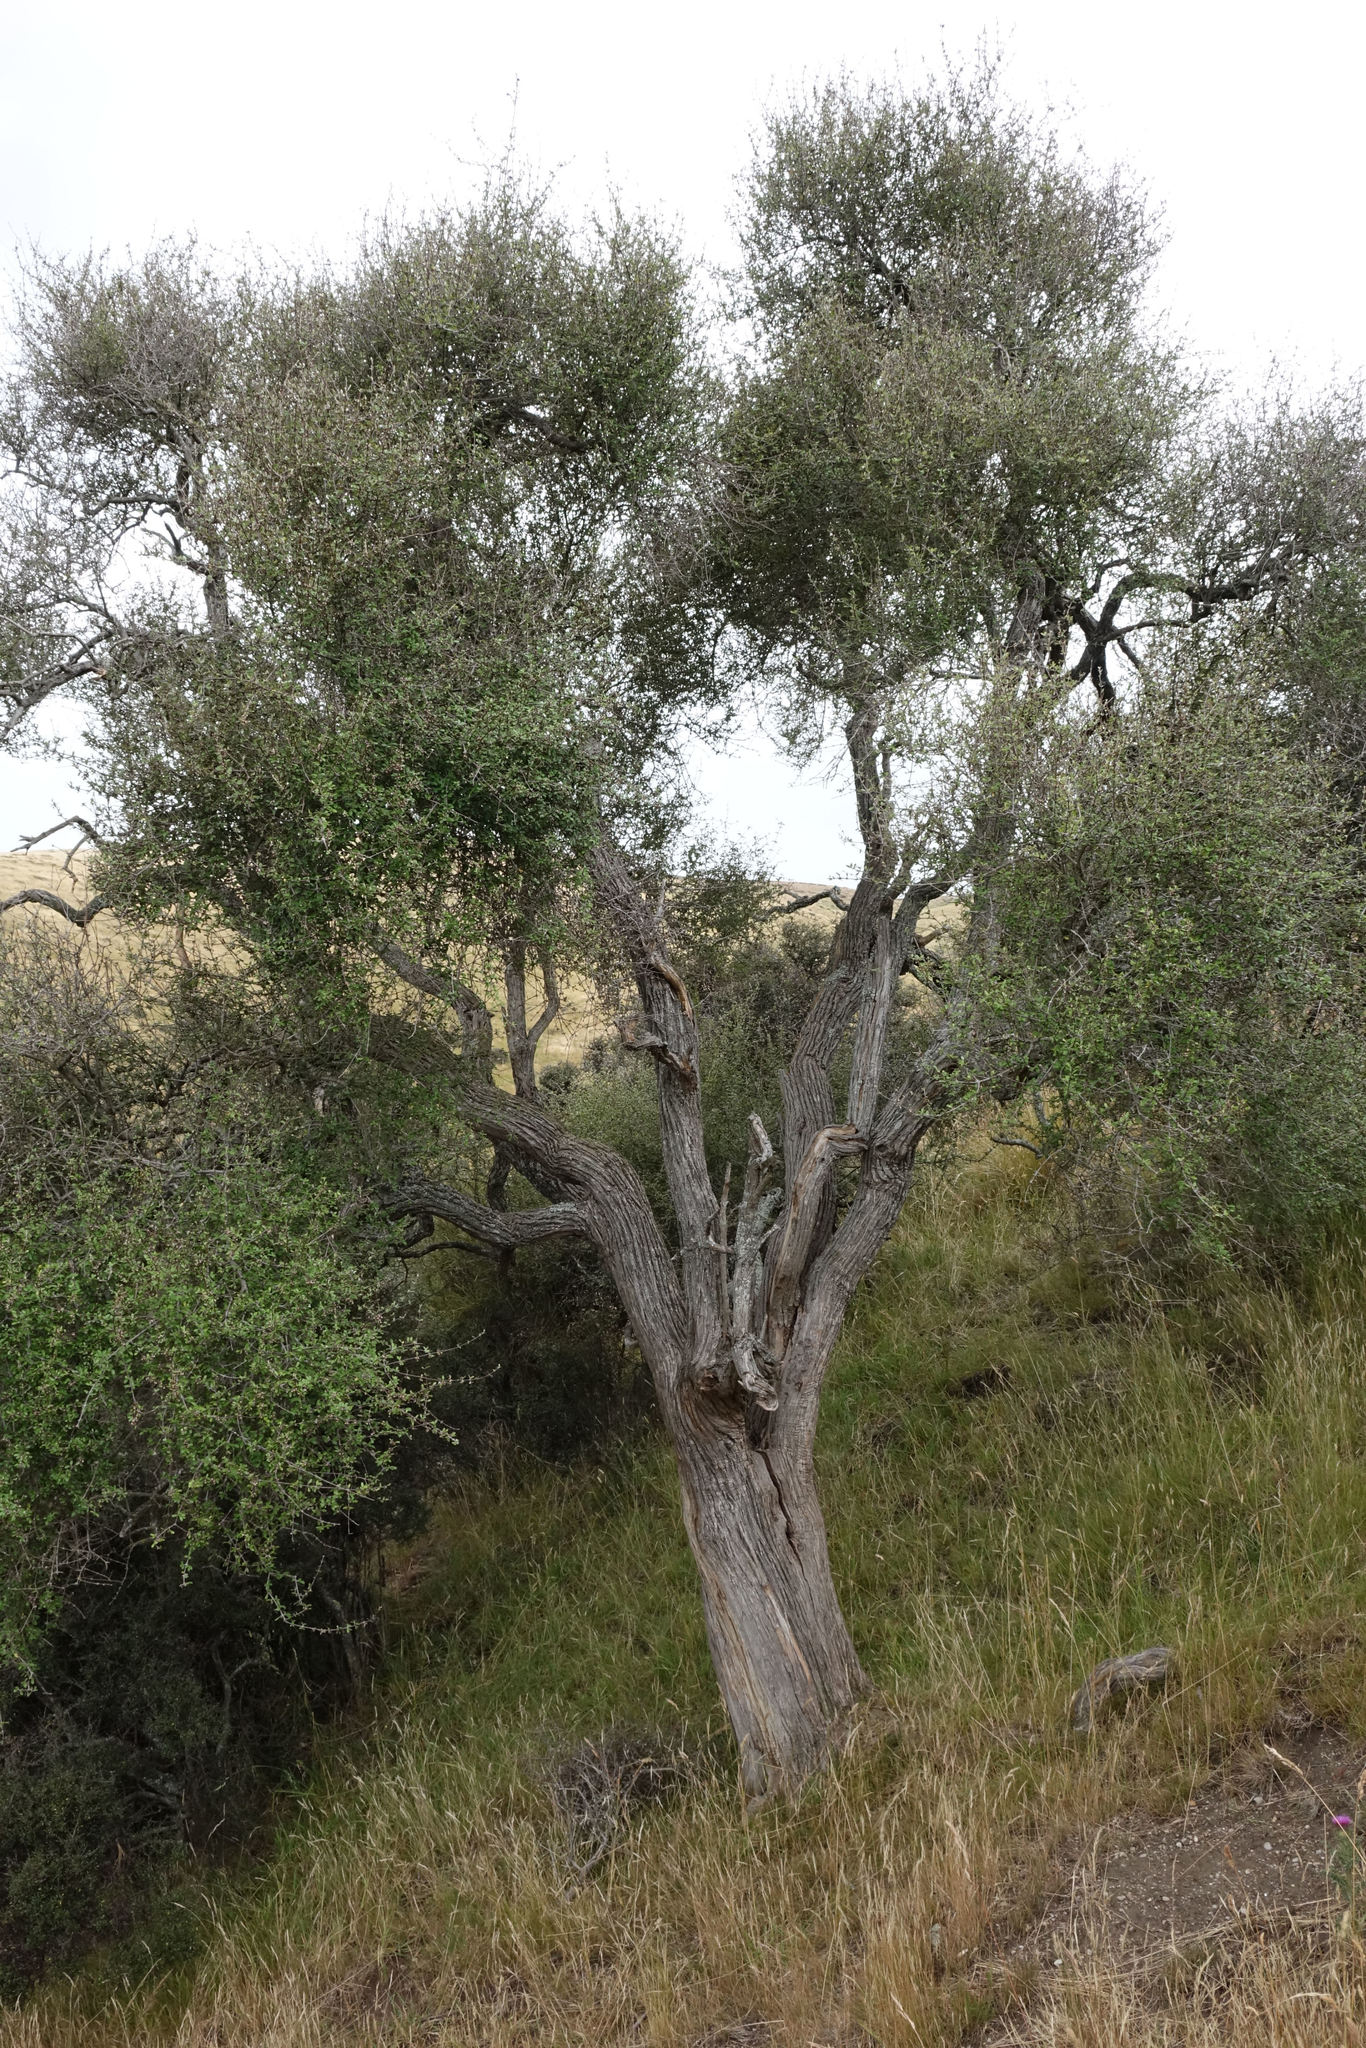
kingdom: Plantae
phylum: Tracheophyta
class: Magnoliopsida
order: Asterales
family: Asteraceae
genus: Olearia
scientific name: Olearia fimbriata
